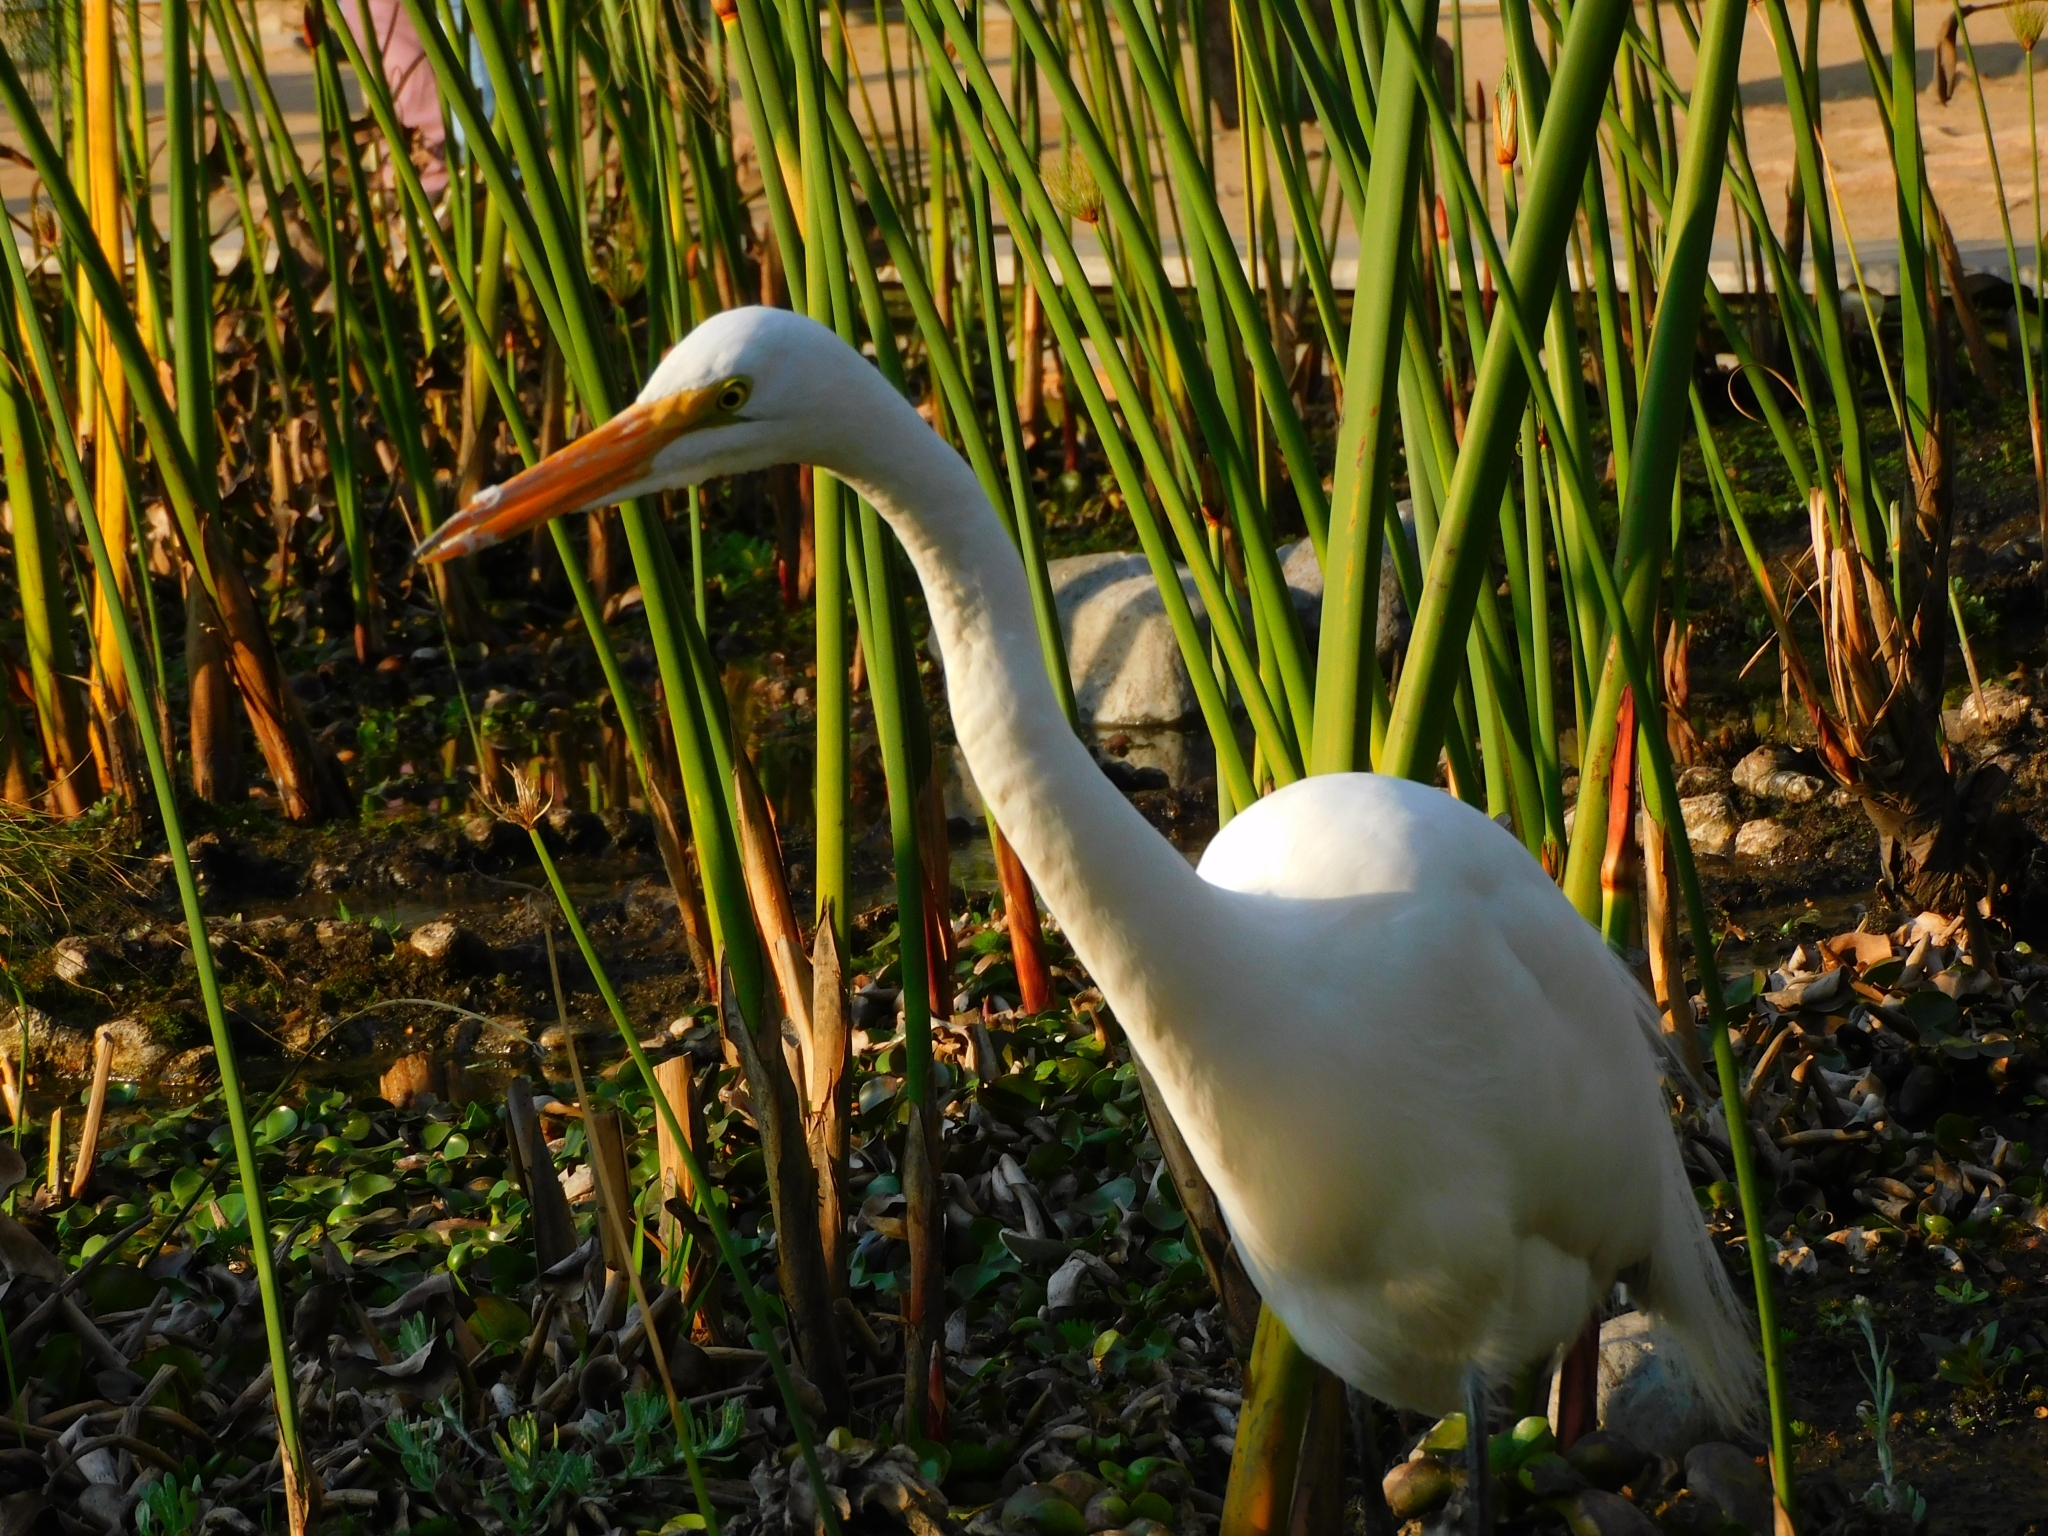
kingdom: Animalia
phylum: Chordata
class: Aves
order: Pelecaniformes
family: Ardeidae
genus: Ardea
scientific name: Ardea alba
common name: Great egret
